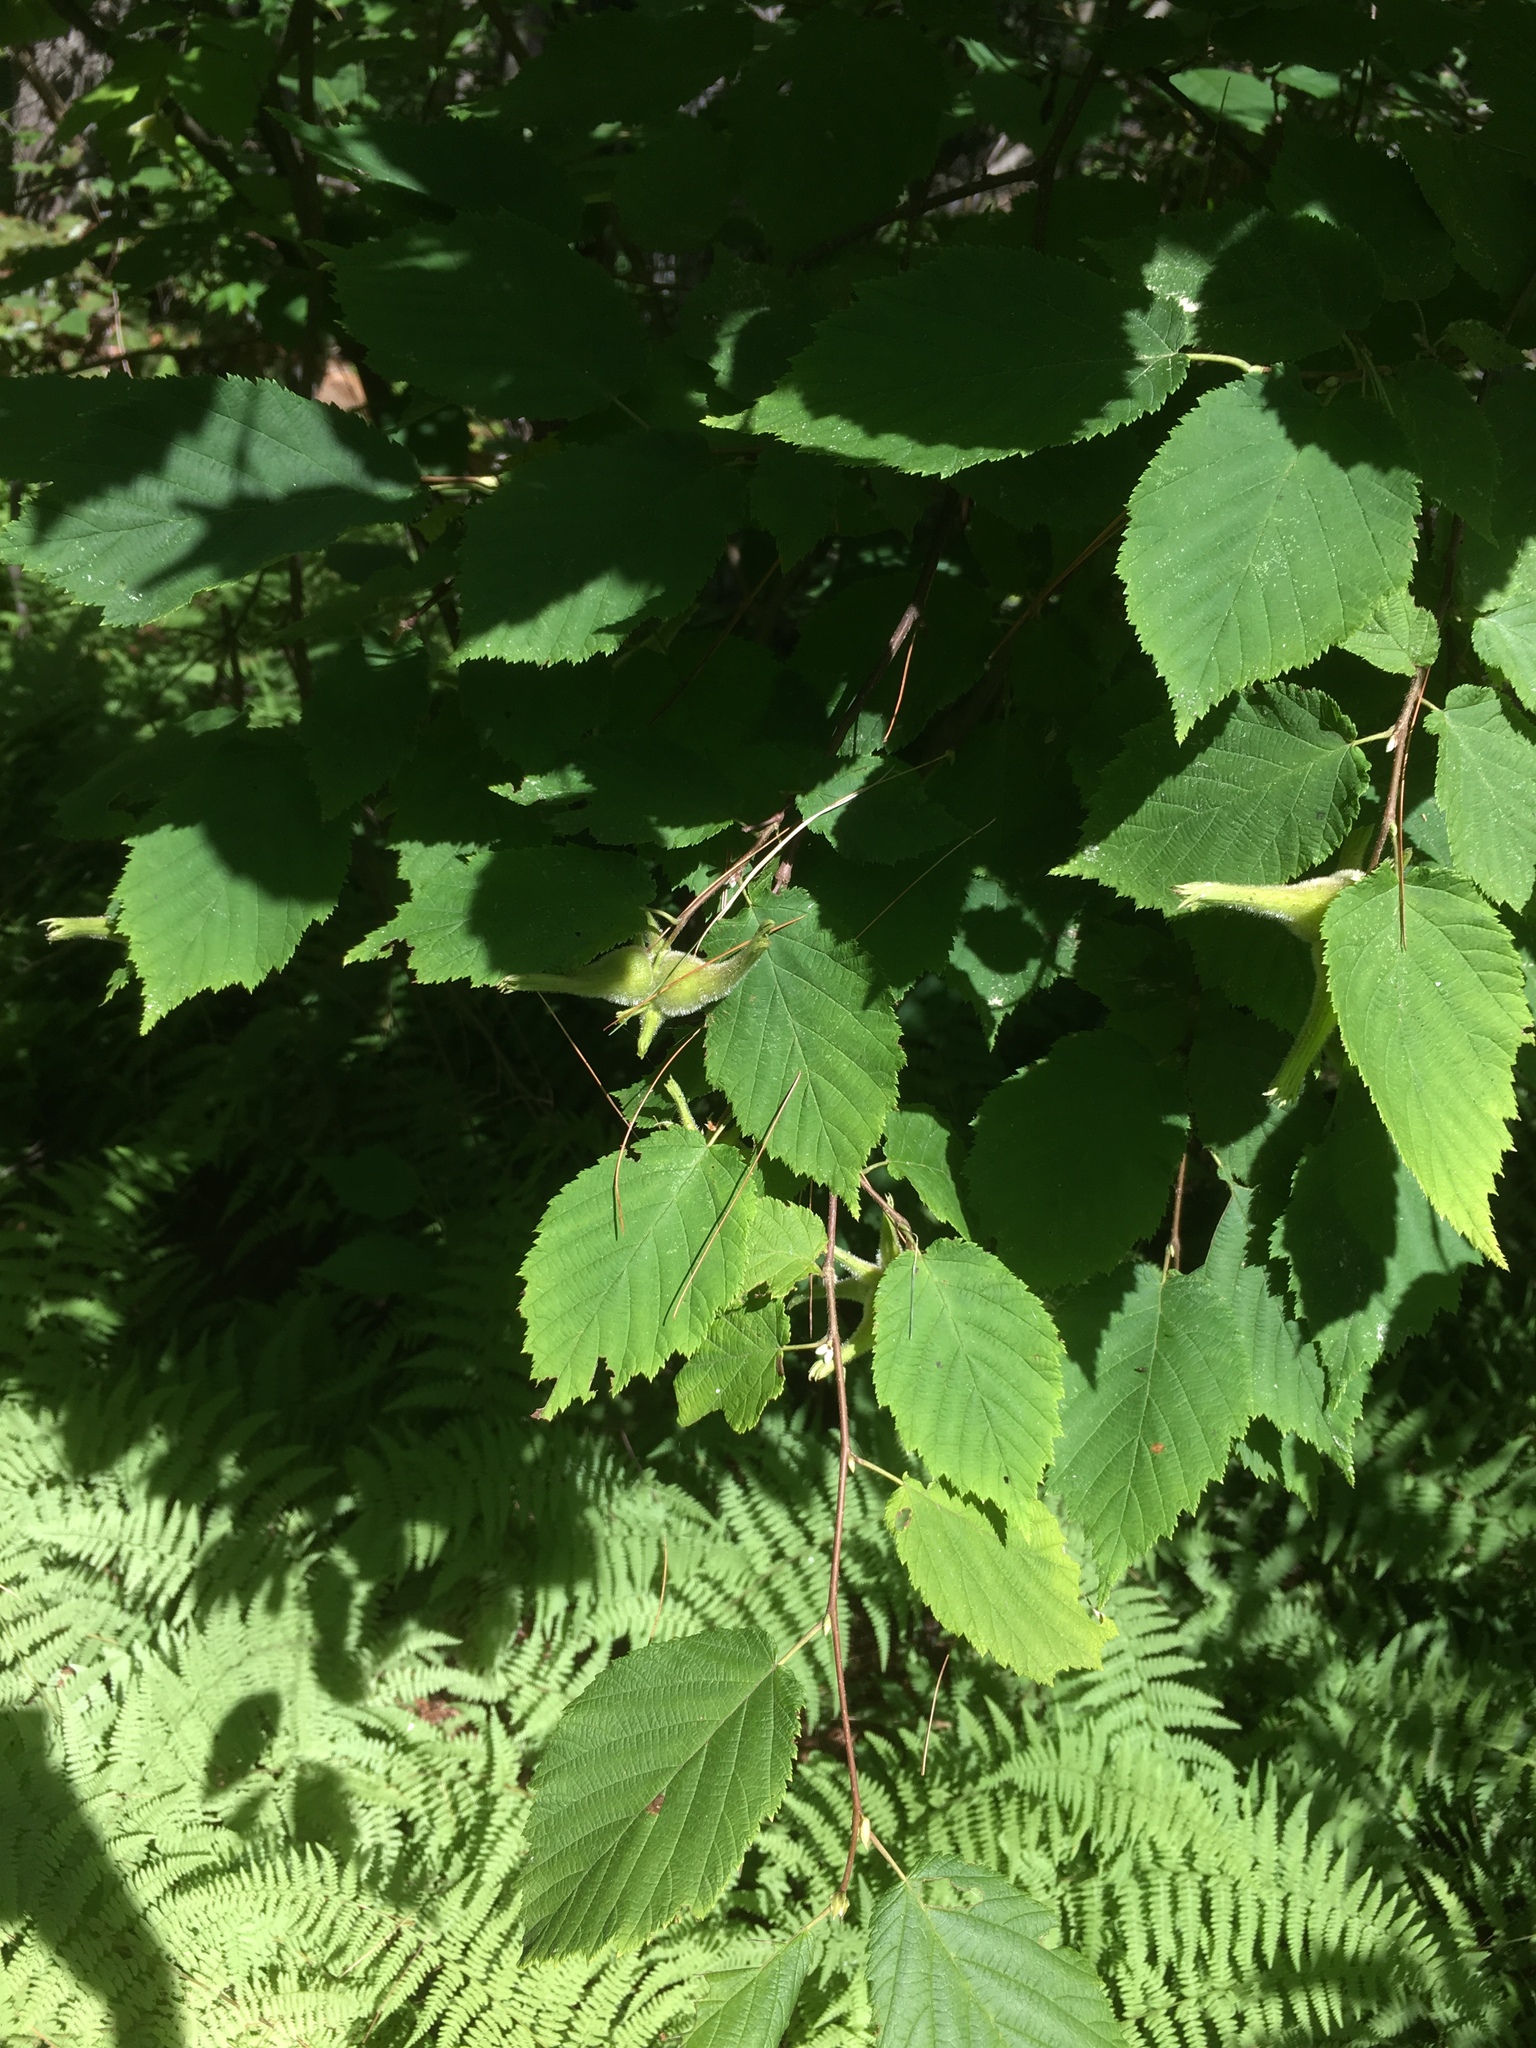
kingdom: Plantae
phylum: Tracheophyta
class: Magnoliopsida
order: Fagales
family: Betulaceae
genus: Corylus
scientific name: Corylus cornuta
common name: Beaked hazel
